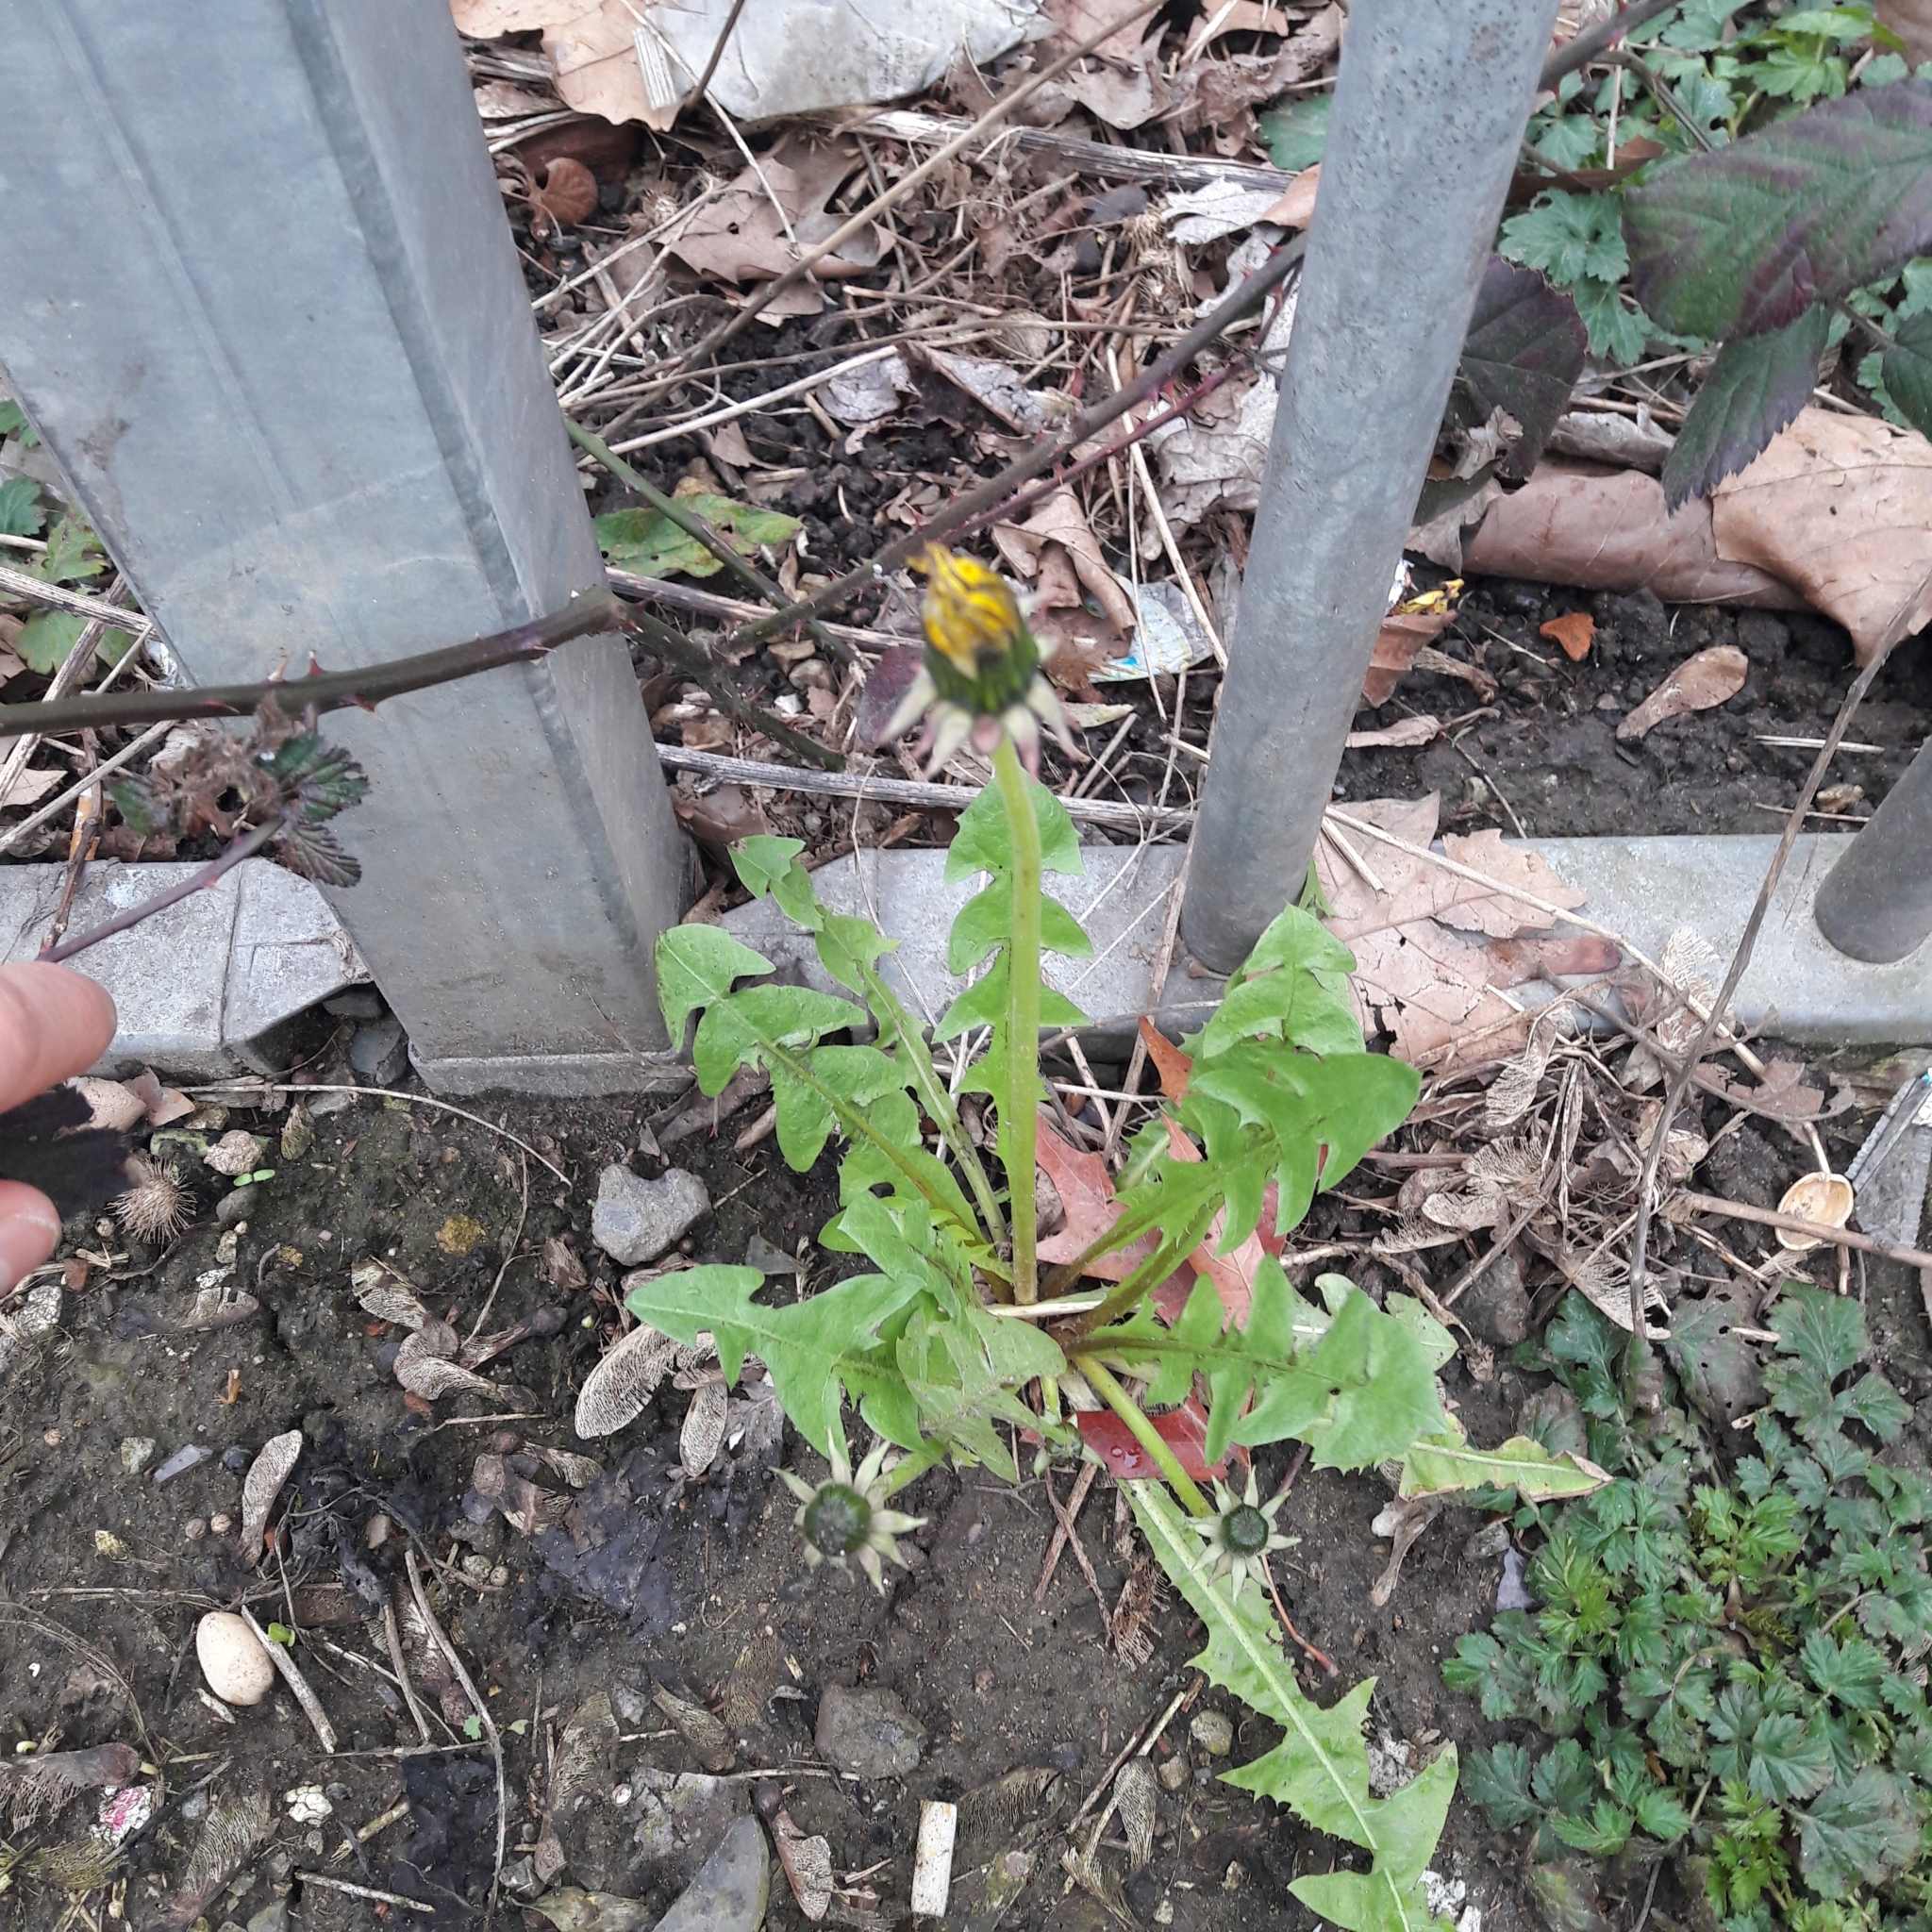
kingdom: Plantae
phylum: Tracheophyta
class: Magnoliopsida
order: Asterales
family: Asteraceae
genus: Taraxacum
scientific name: Taraxacum officinale
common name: Common dandelion
